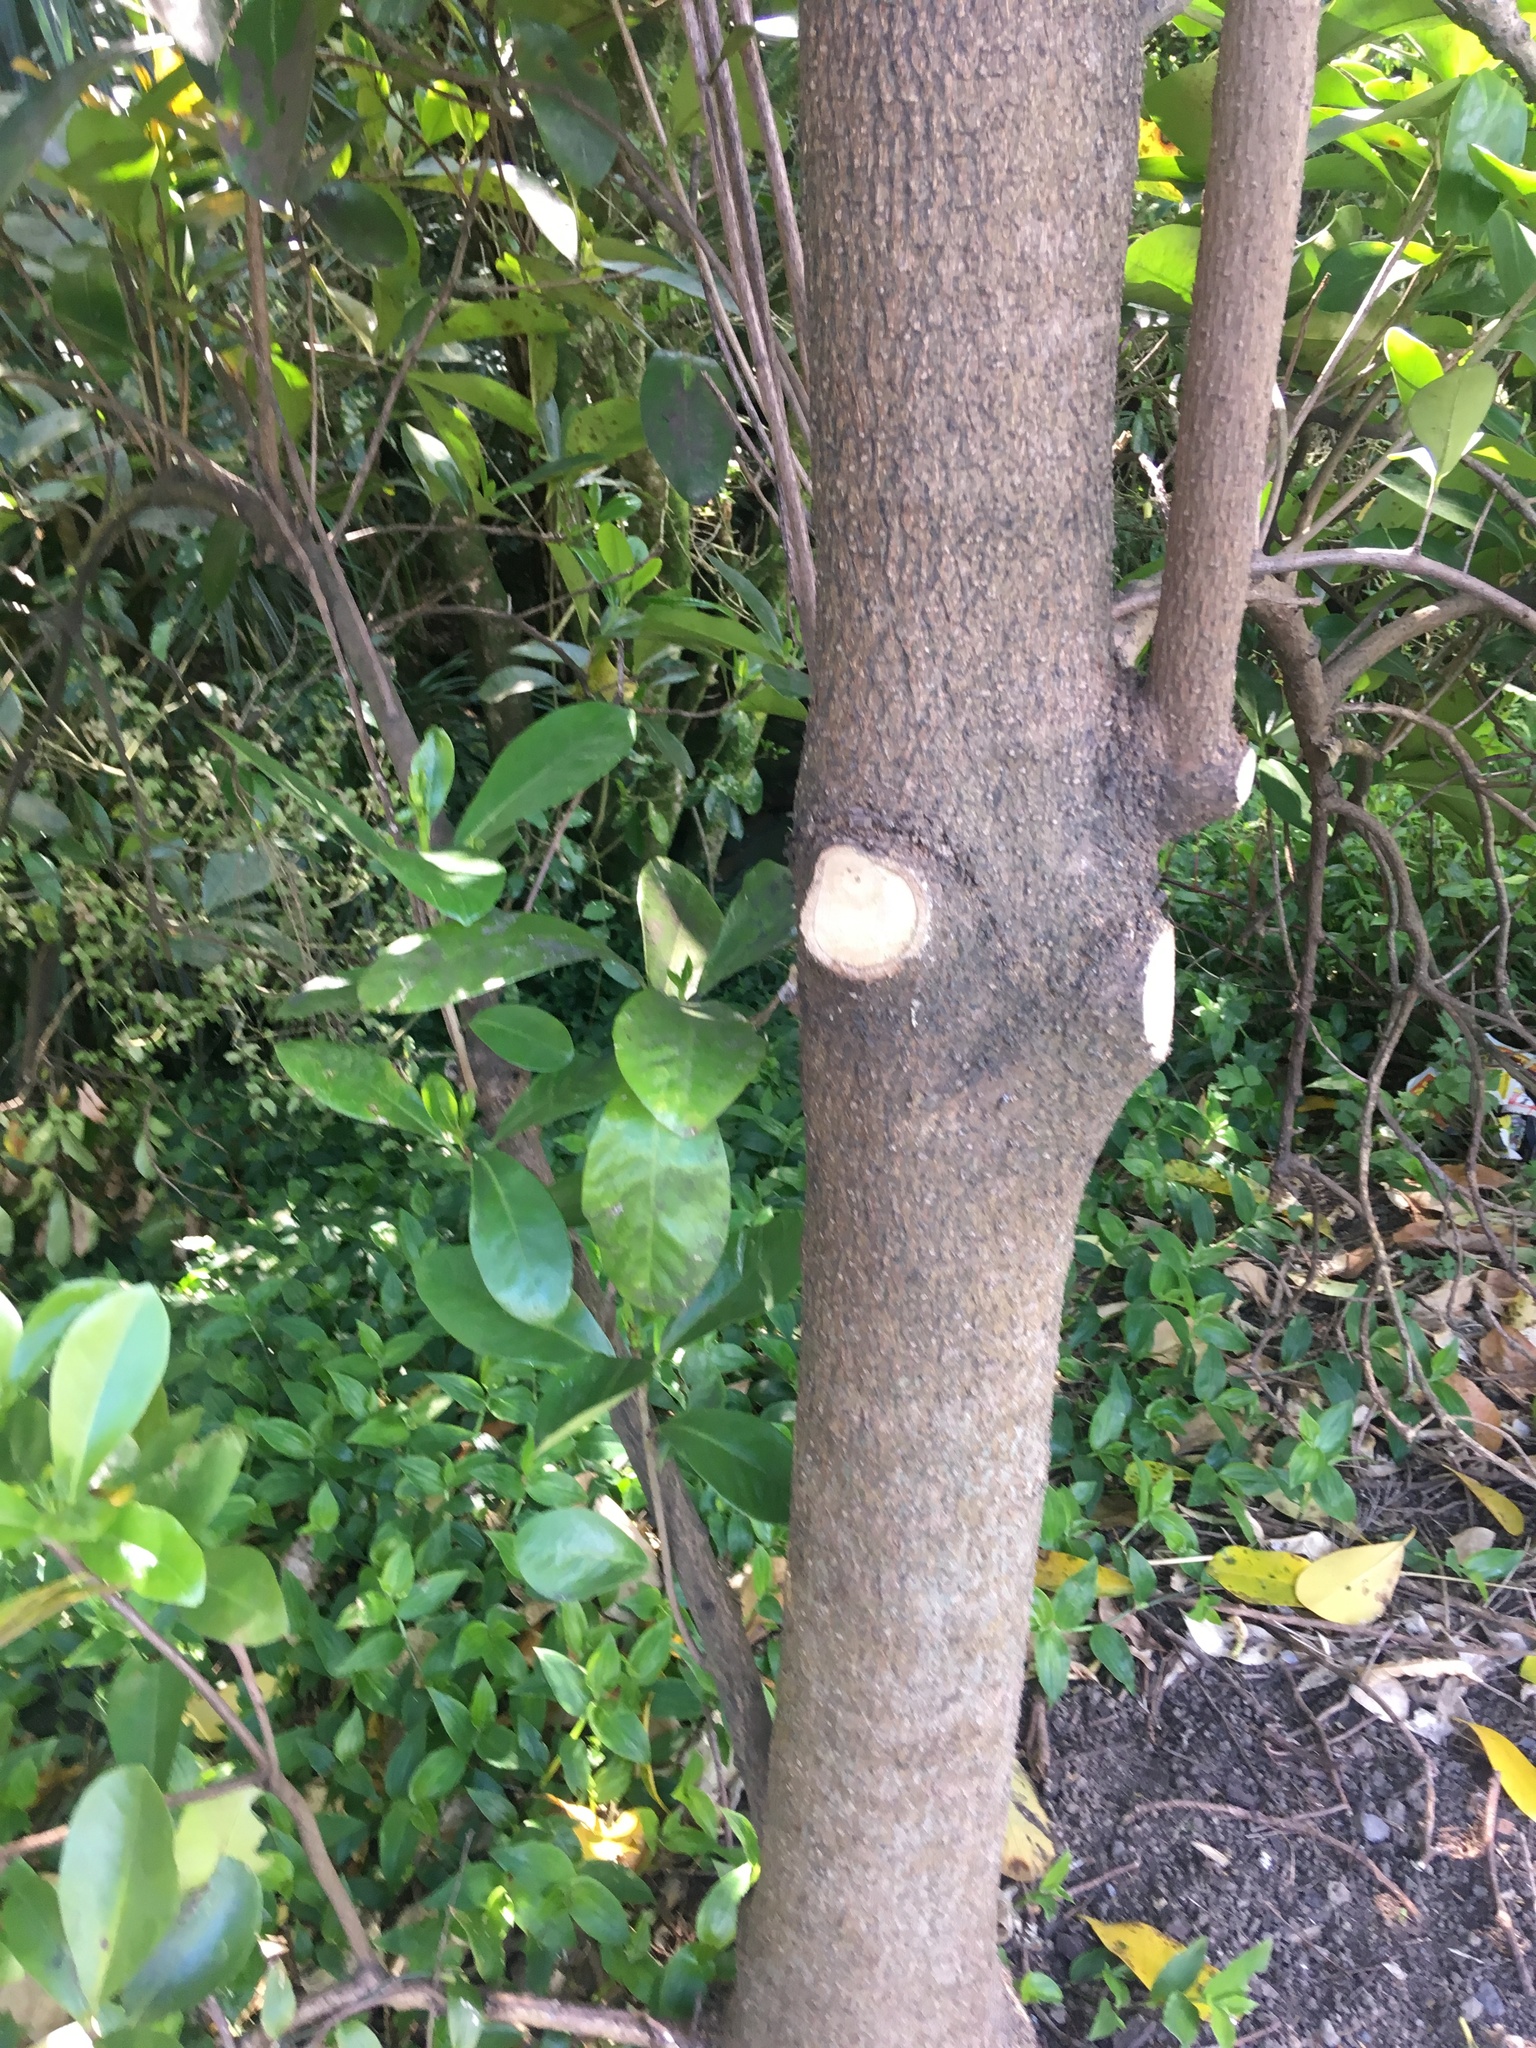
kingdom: Plantae
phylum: Tracheophyta
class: Magnoliopsida
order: Cucurbitales
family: Corynocarpaceae
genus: Corynocarpus
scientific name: Corynocarpus laevigatus
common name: New zealand laurel
